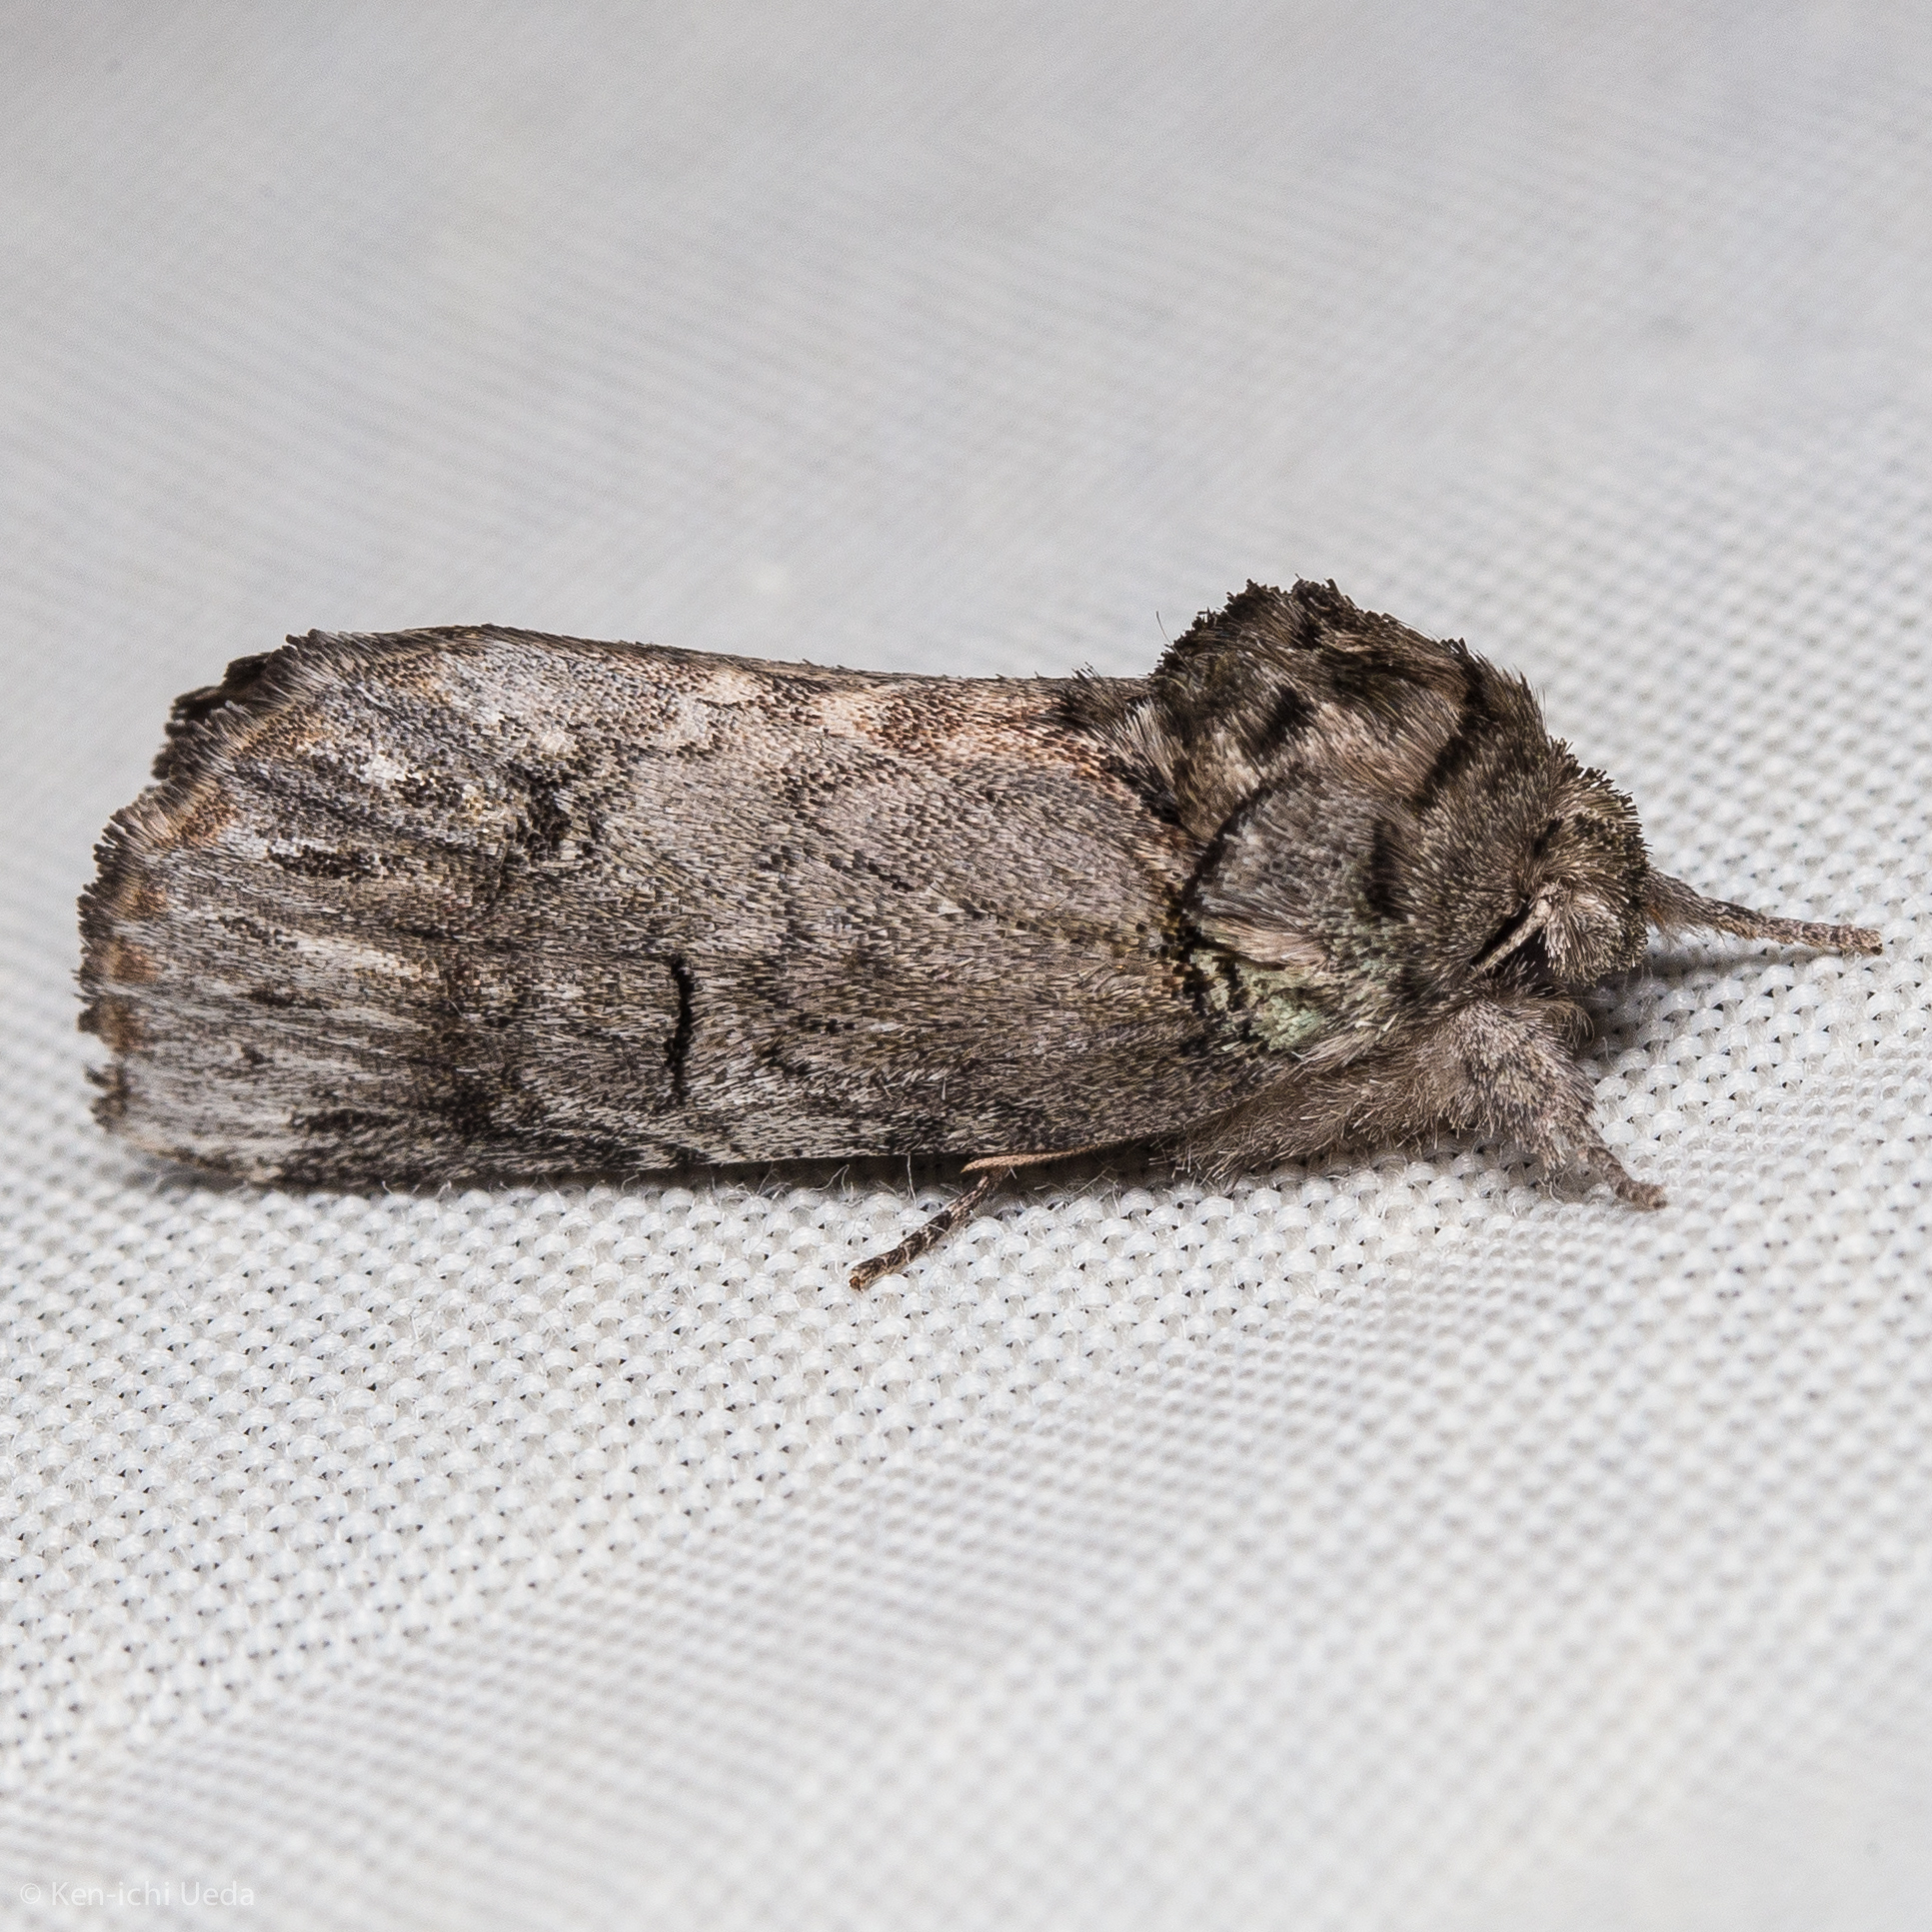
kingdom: Animalia
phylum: Arthropoda
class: Insecta
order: Lepidoptera
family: Notodontidae
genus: Schizura
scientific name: Schizura
